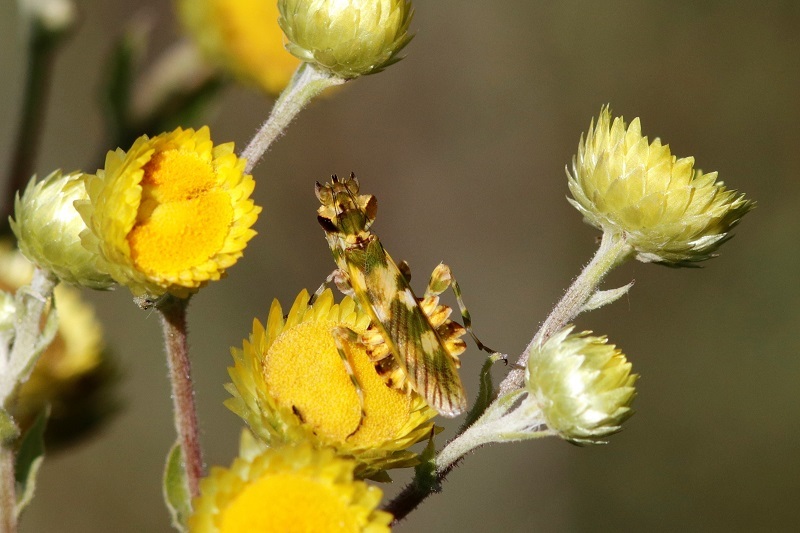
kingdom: Animalia
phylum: Arthropoda
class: Insecta
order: Mantodea
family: Galinthiadidae
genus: Harpagomantis
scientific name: Harpagomantis tricolor
